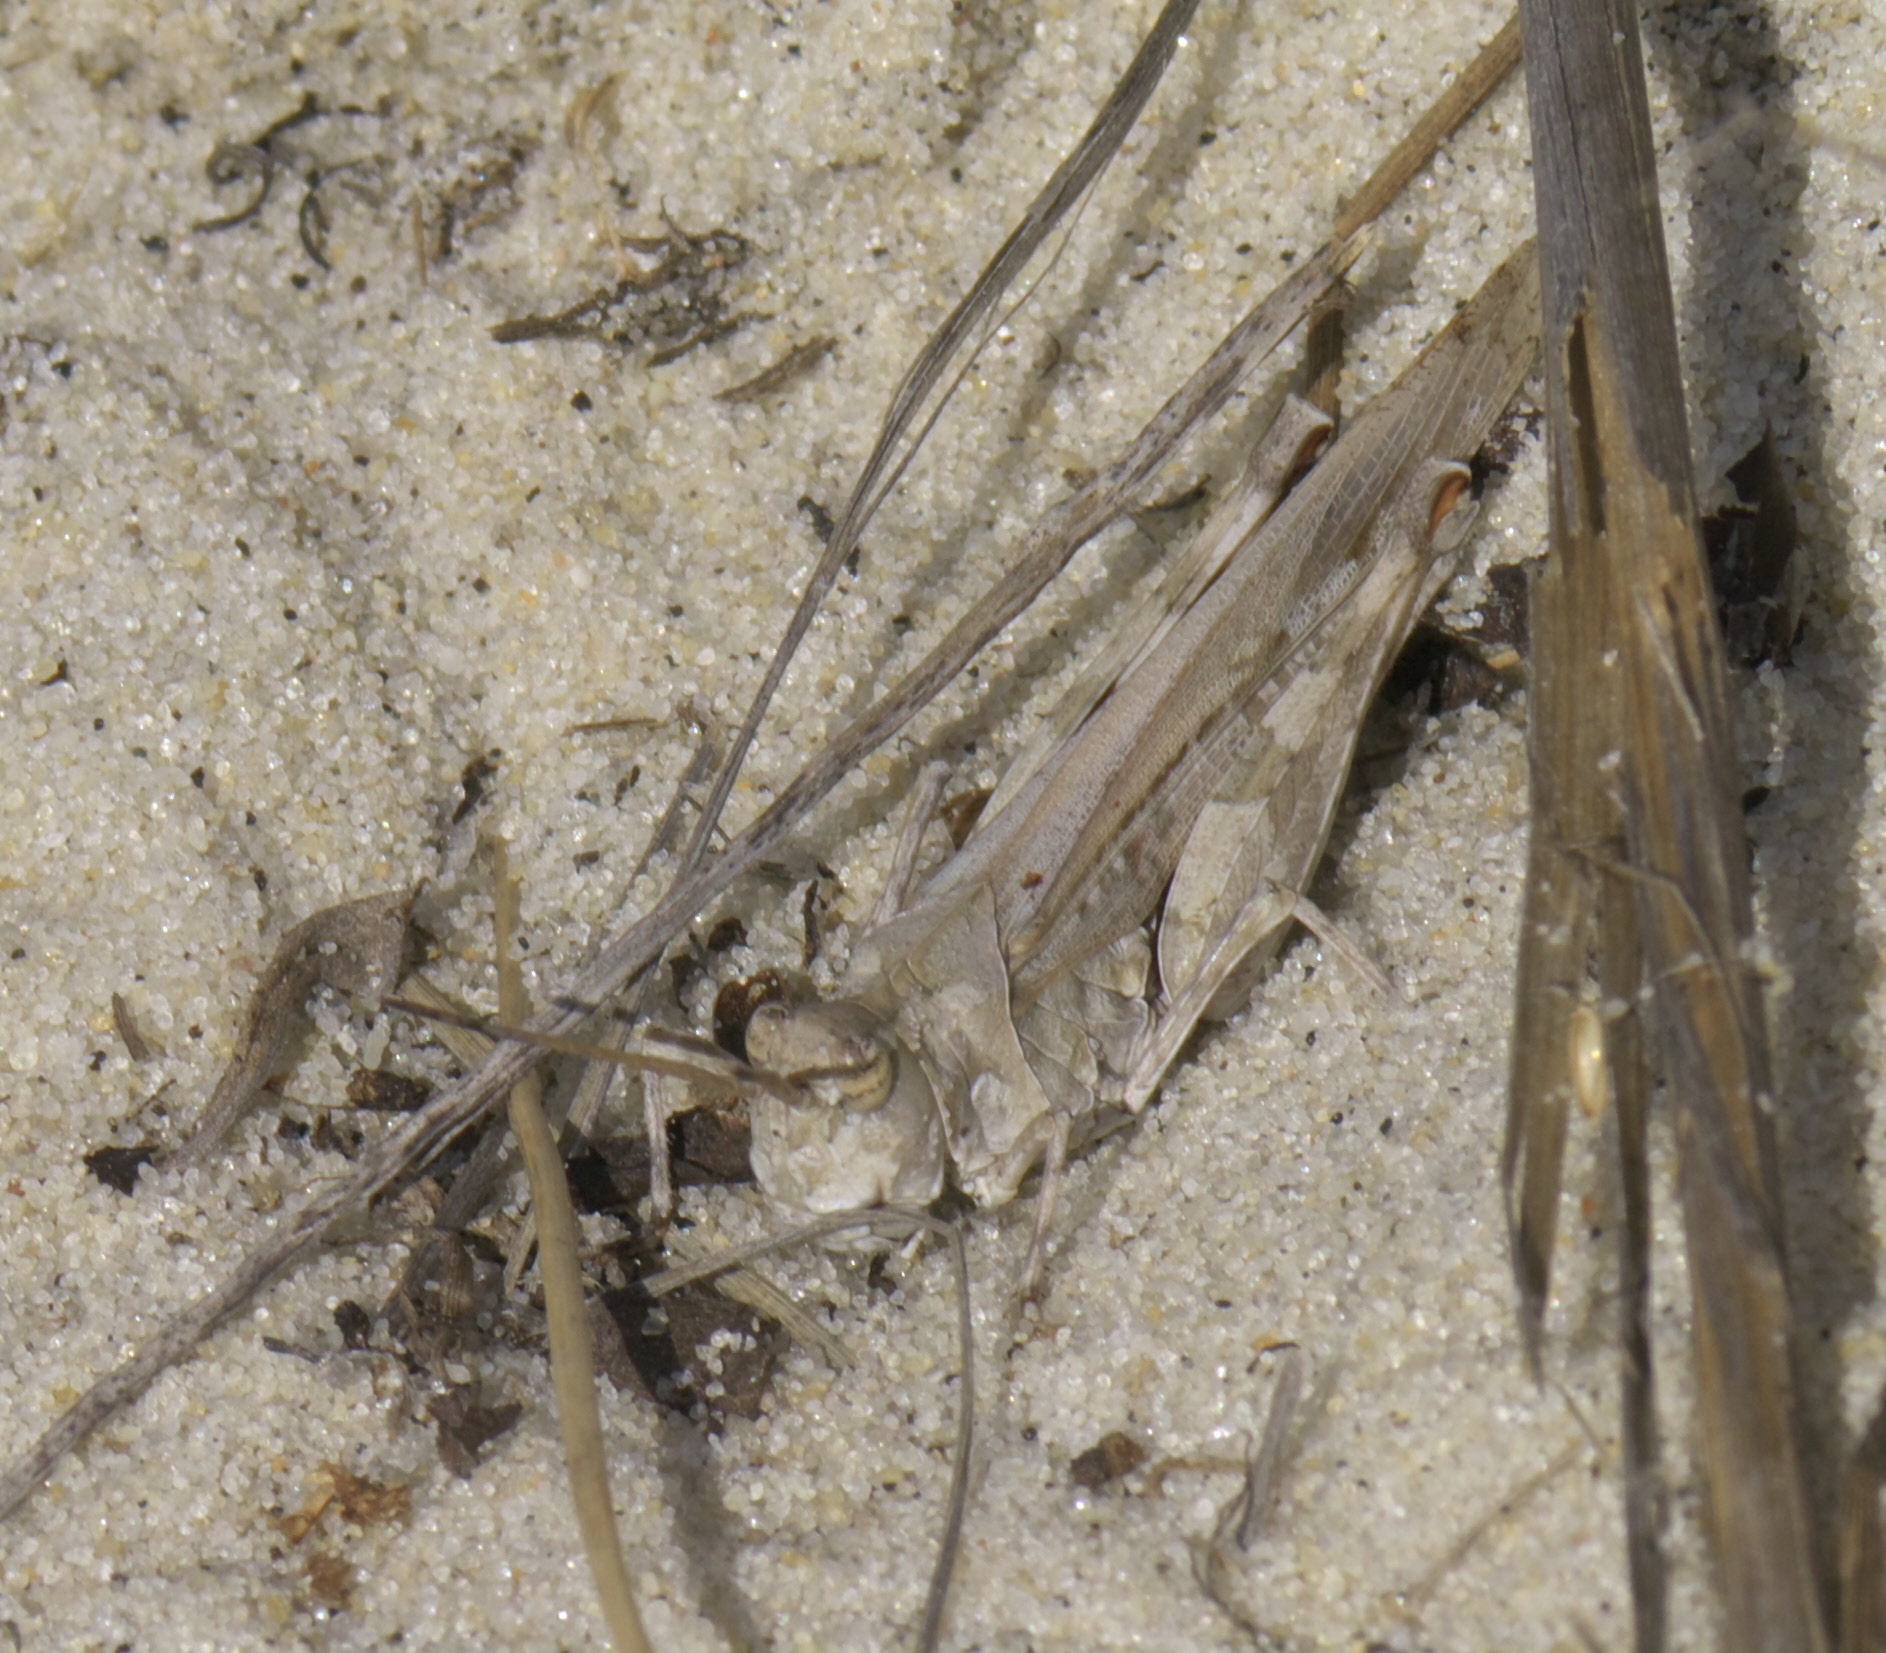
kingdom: Animalia
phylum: Arthropoda
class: Insecta
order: Orthoptera
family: Acrididae
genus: Psinidia
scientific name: Psinidia fenestralis
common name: Long-horned locust
